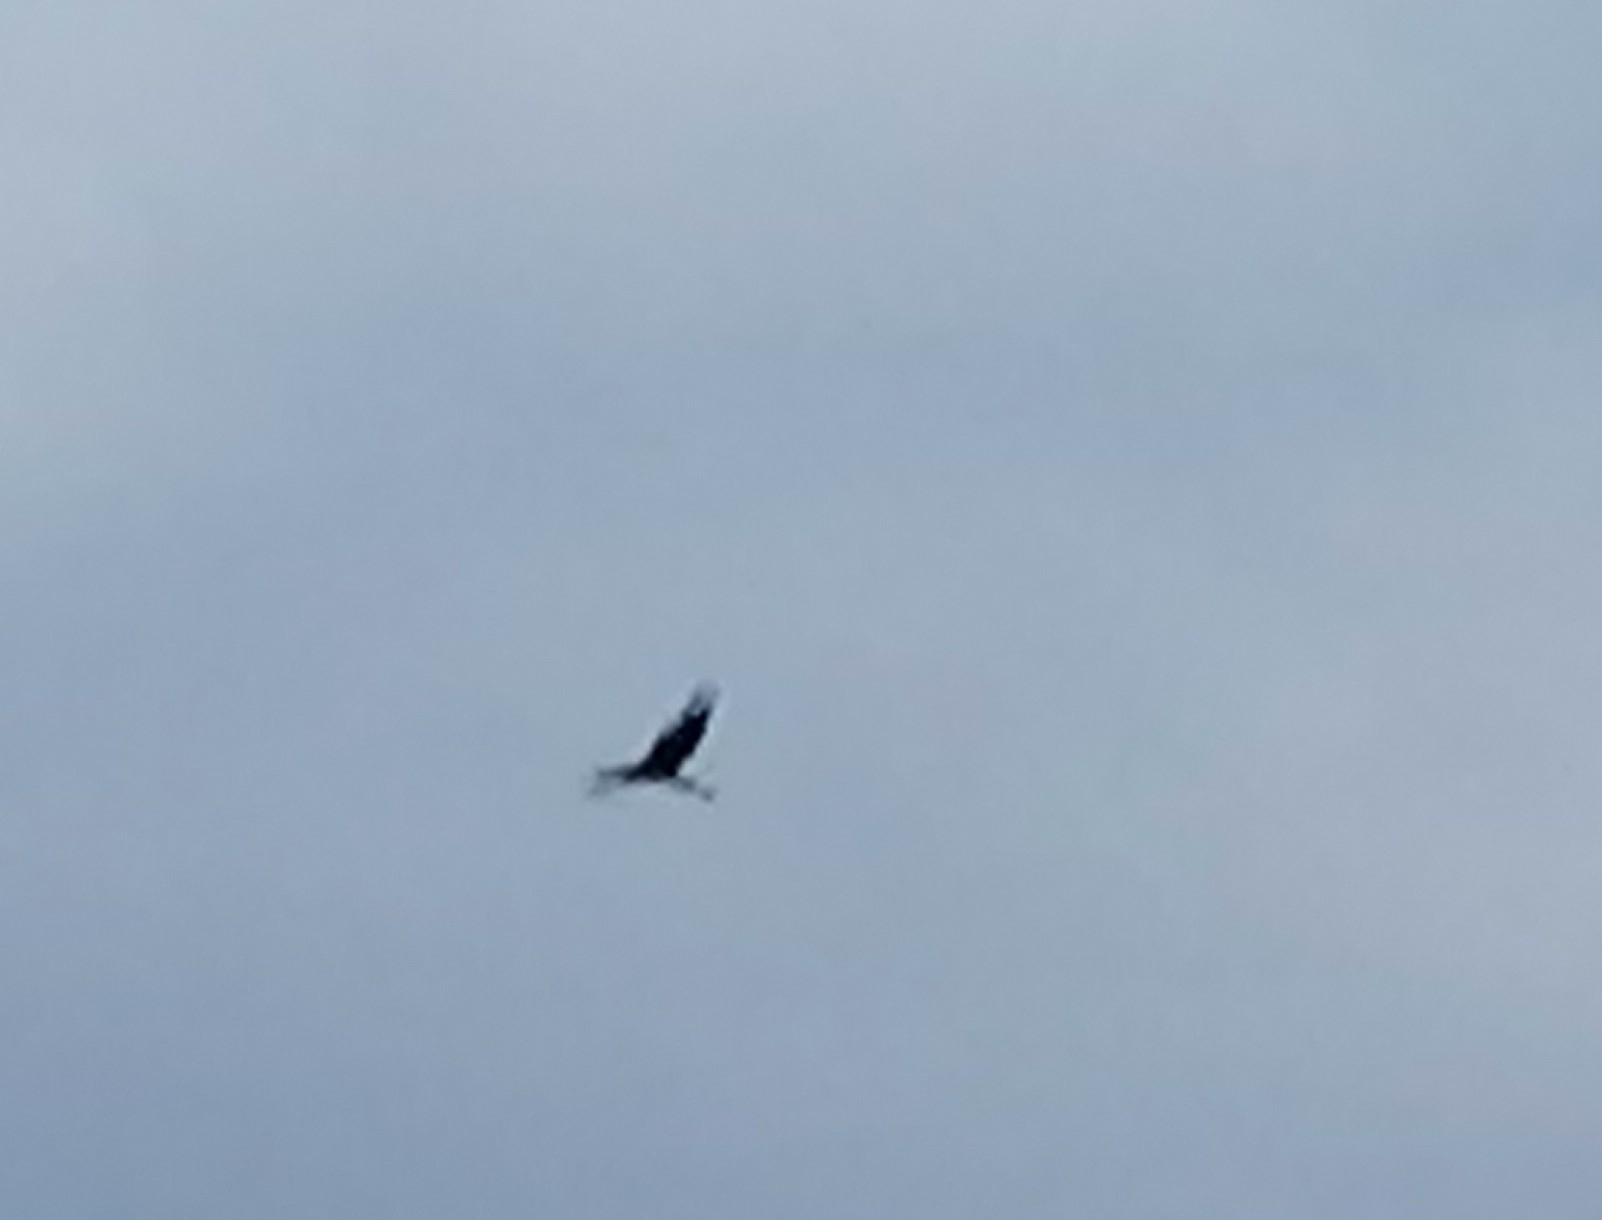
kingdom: Animalia
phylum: Chordata
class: Aves
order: Pelecaniformes
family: Ardeidae
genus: Ardea
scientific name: Ardea cinerea
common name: Grey heron
